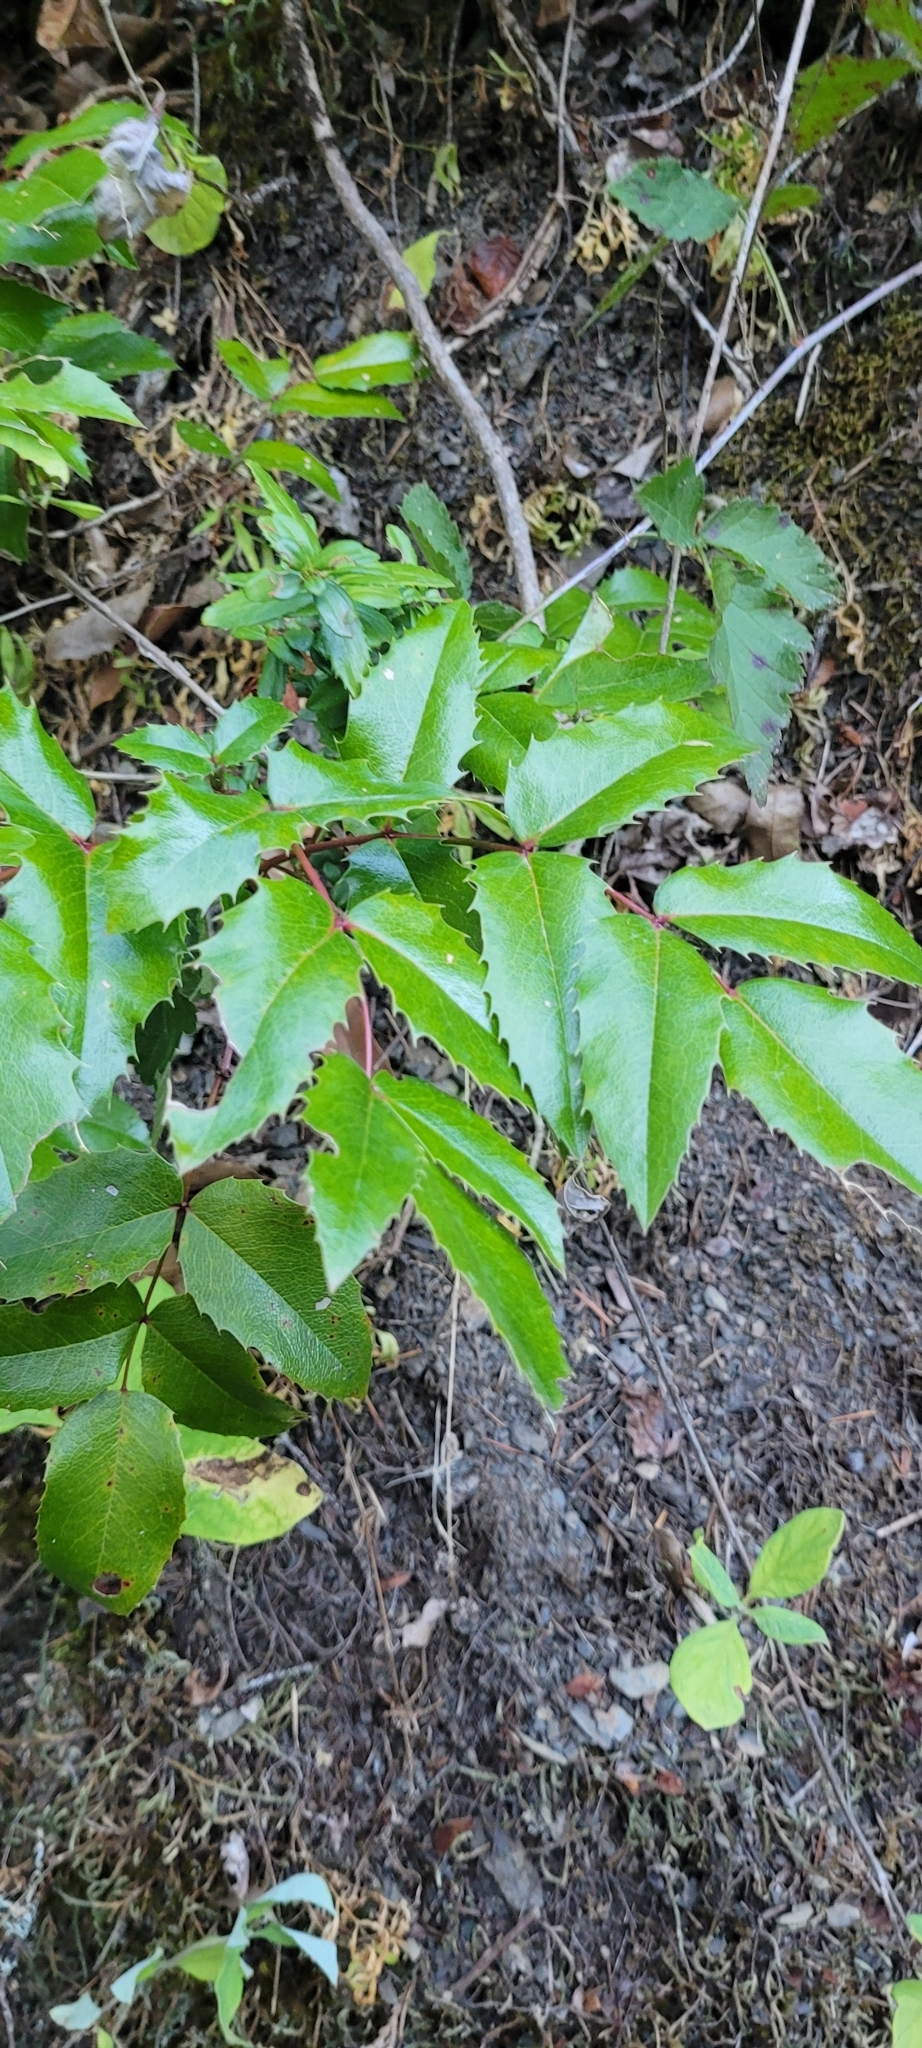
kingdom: Plantae
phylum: Tracheophyta
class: Magnoliopsida
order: Ranunculales
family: Berberidaceae
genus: Mahonia
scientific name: Mahonia aquifolium
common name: Oregon-grape
